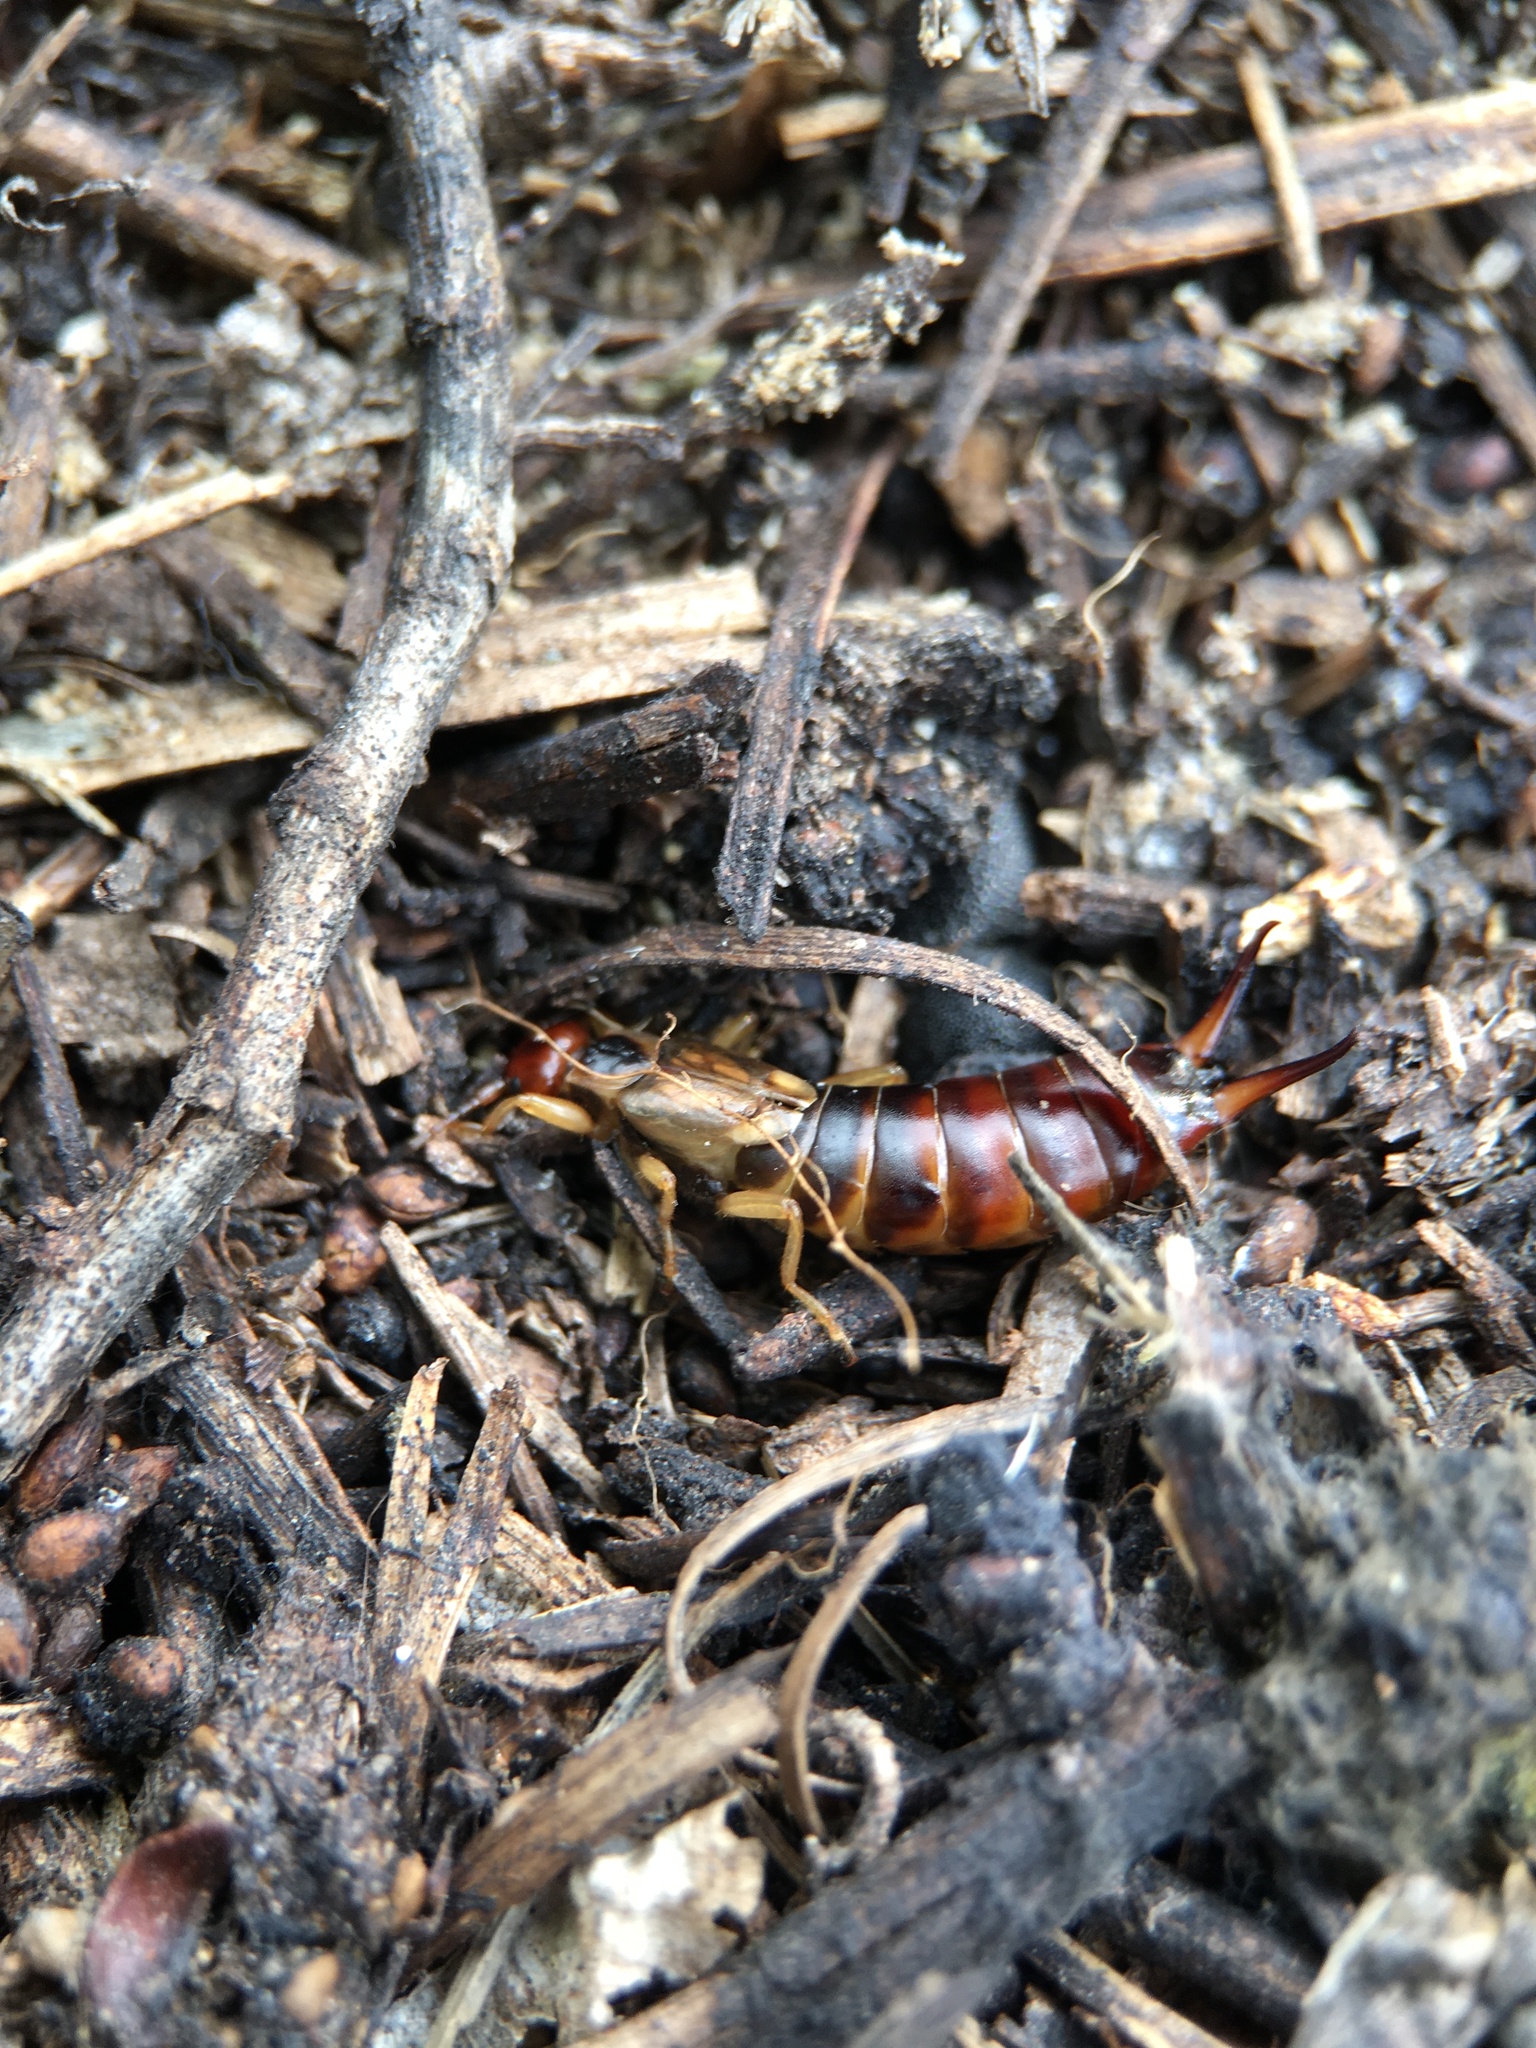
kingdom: Animalia
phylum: Arthropoda
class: Insecta
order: Dermaptera
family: Forficulidae
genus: Forficula
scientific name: Forficula dentata
